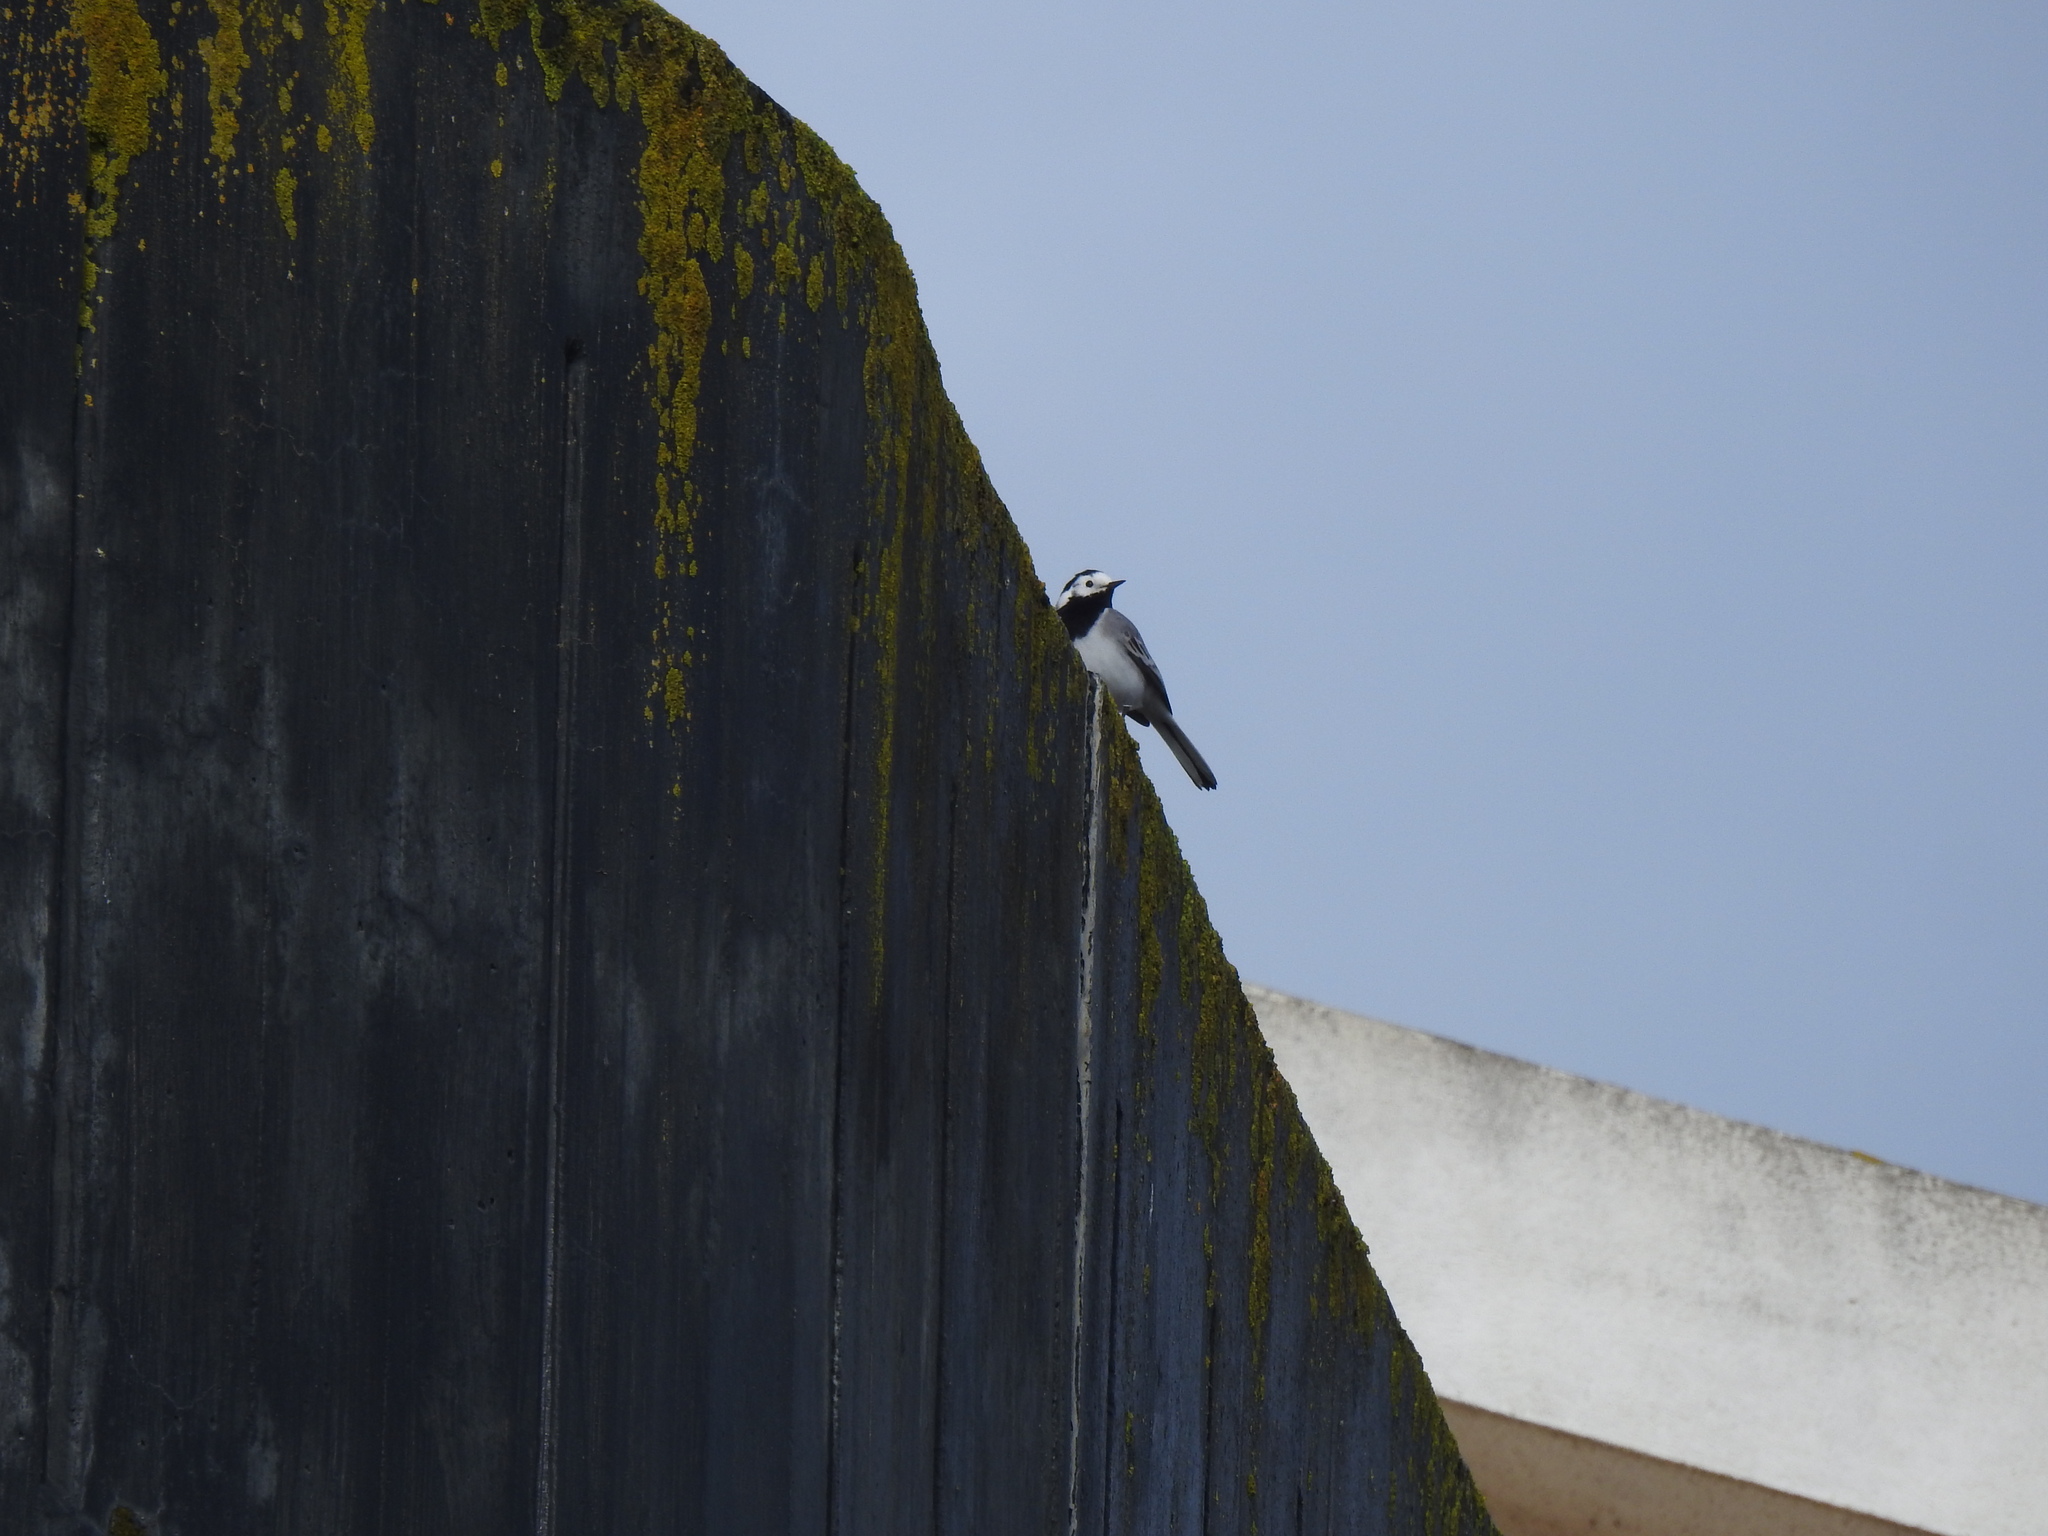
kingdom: Animalia
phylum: Chordata
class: Aves
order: Passeriformes
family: Motacillidae
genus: Motacilla
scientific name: Motacilla alba
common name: White wagtail
